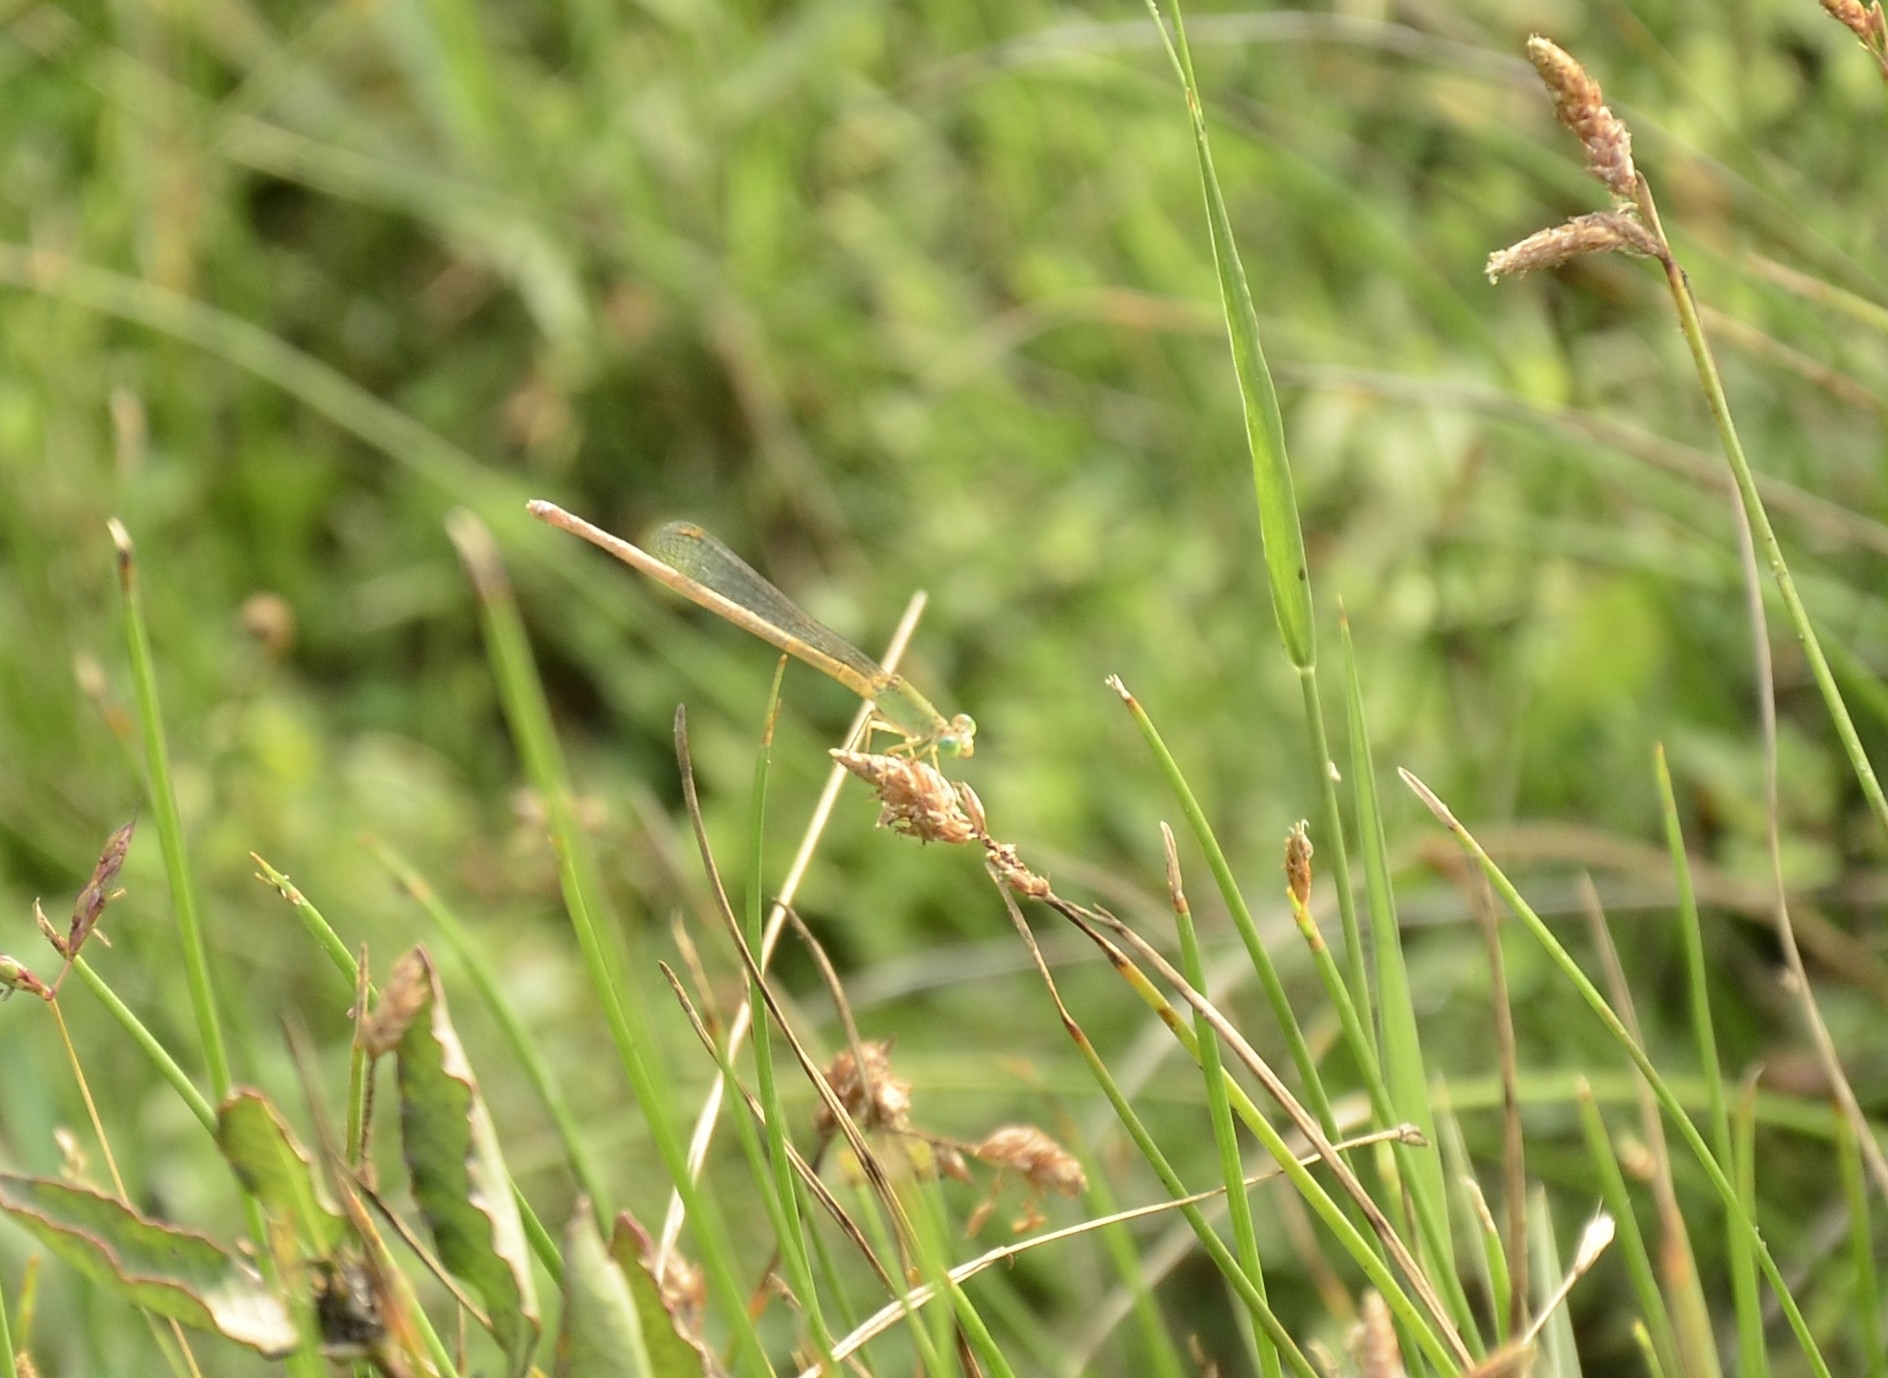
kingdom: Animalia
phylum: Arthropoda
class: Insecta
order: Odonata
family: Coenagrionidae
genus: Ceriagrion
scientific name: Ceriagrion coromandelianum
